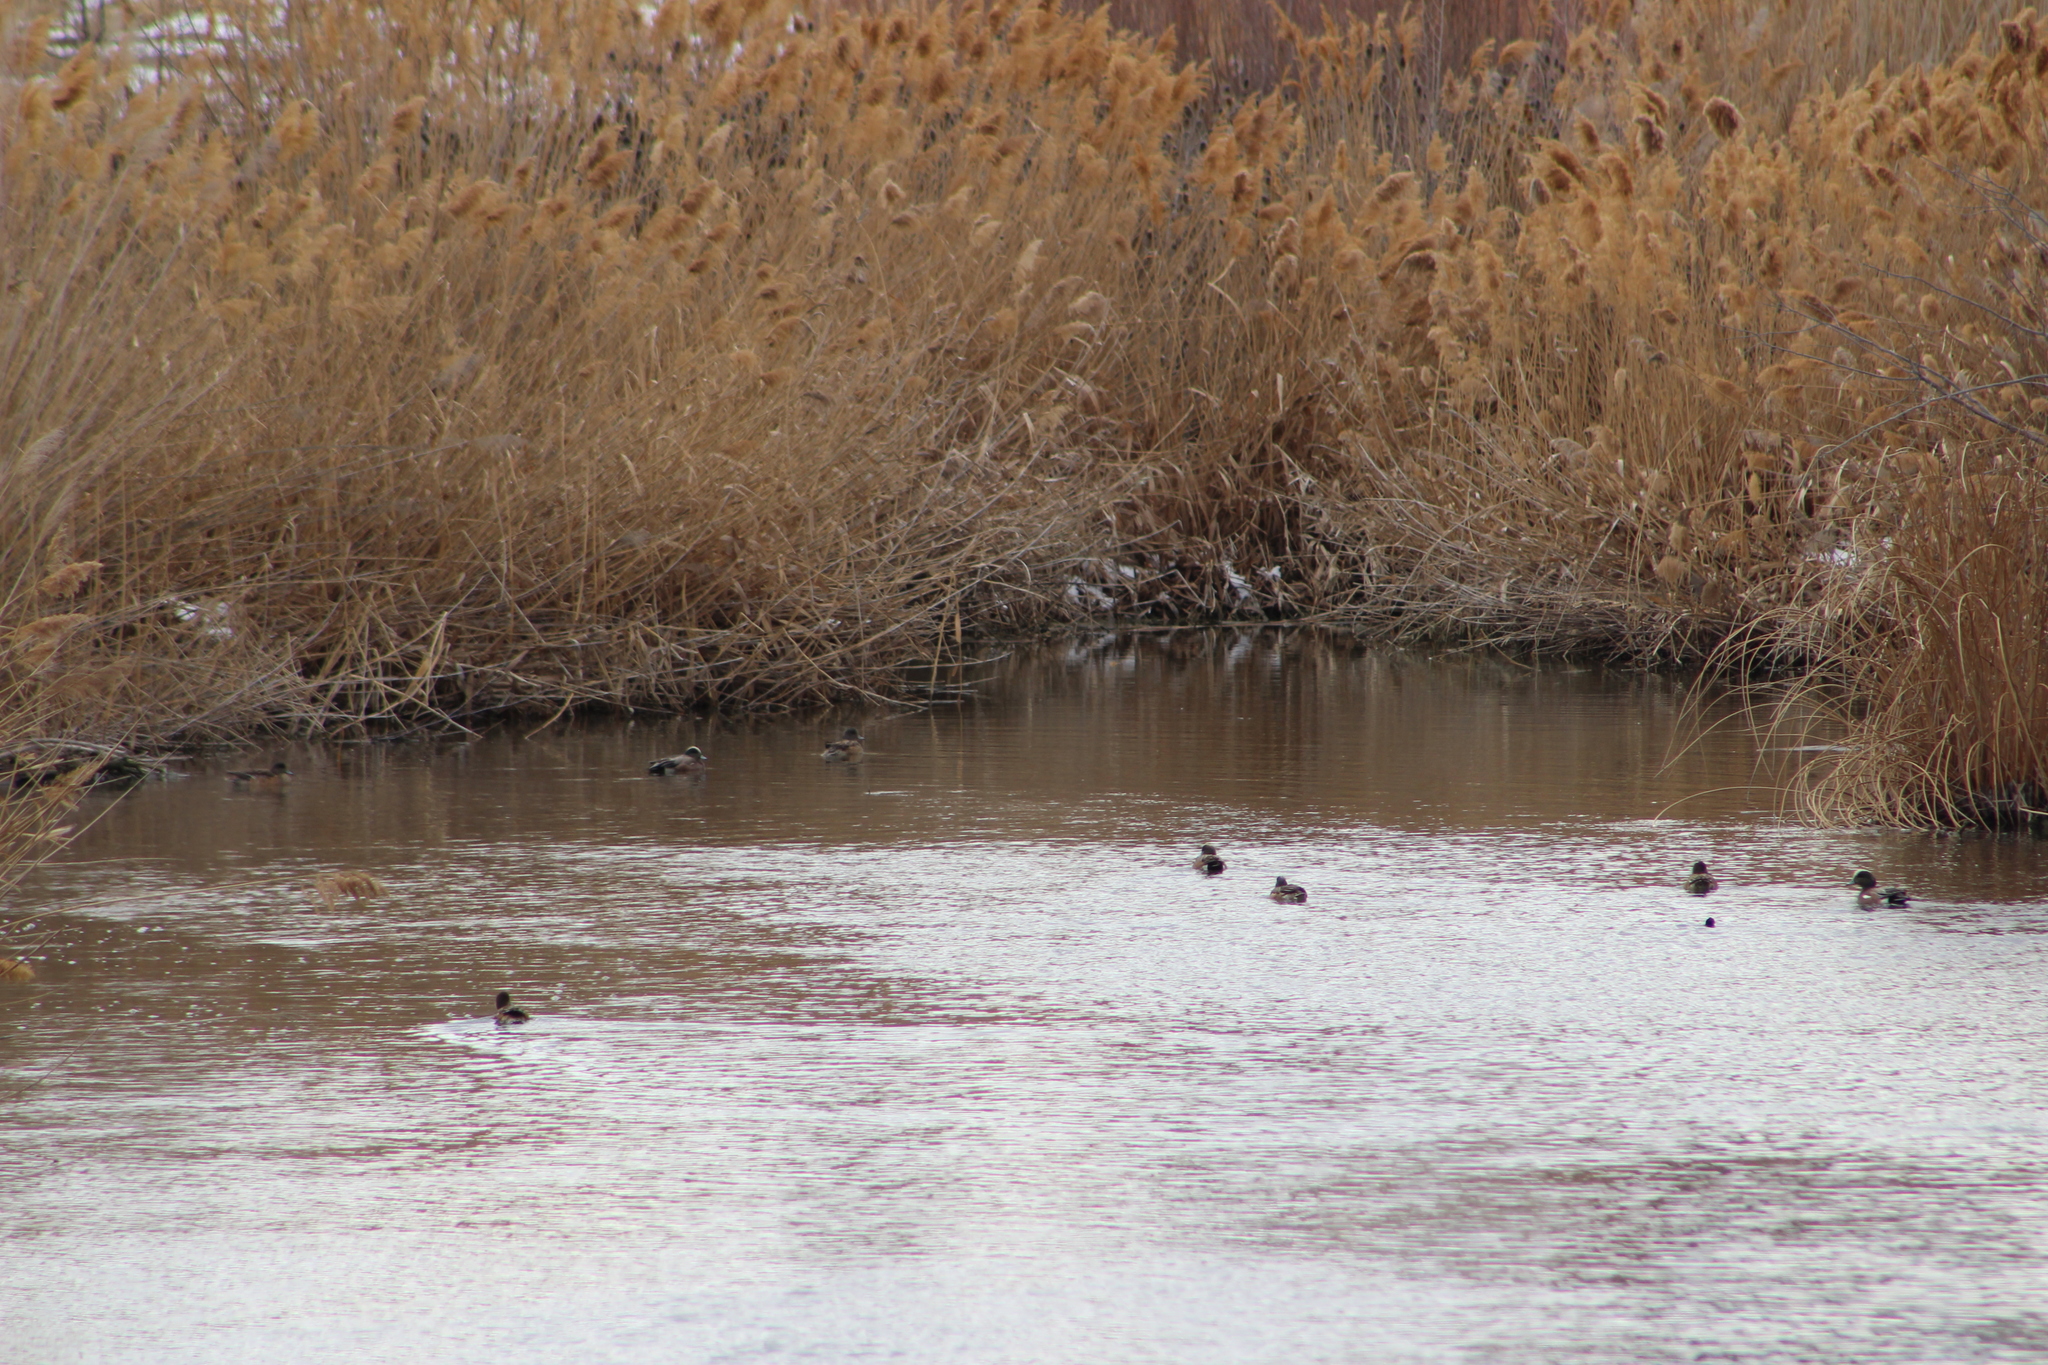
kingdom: Animalia
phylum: Chordata
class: Aves
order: Anseriformes
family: Anatidae
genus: Mareca
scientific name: Mareca americana
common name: American wigeon
